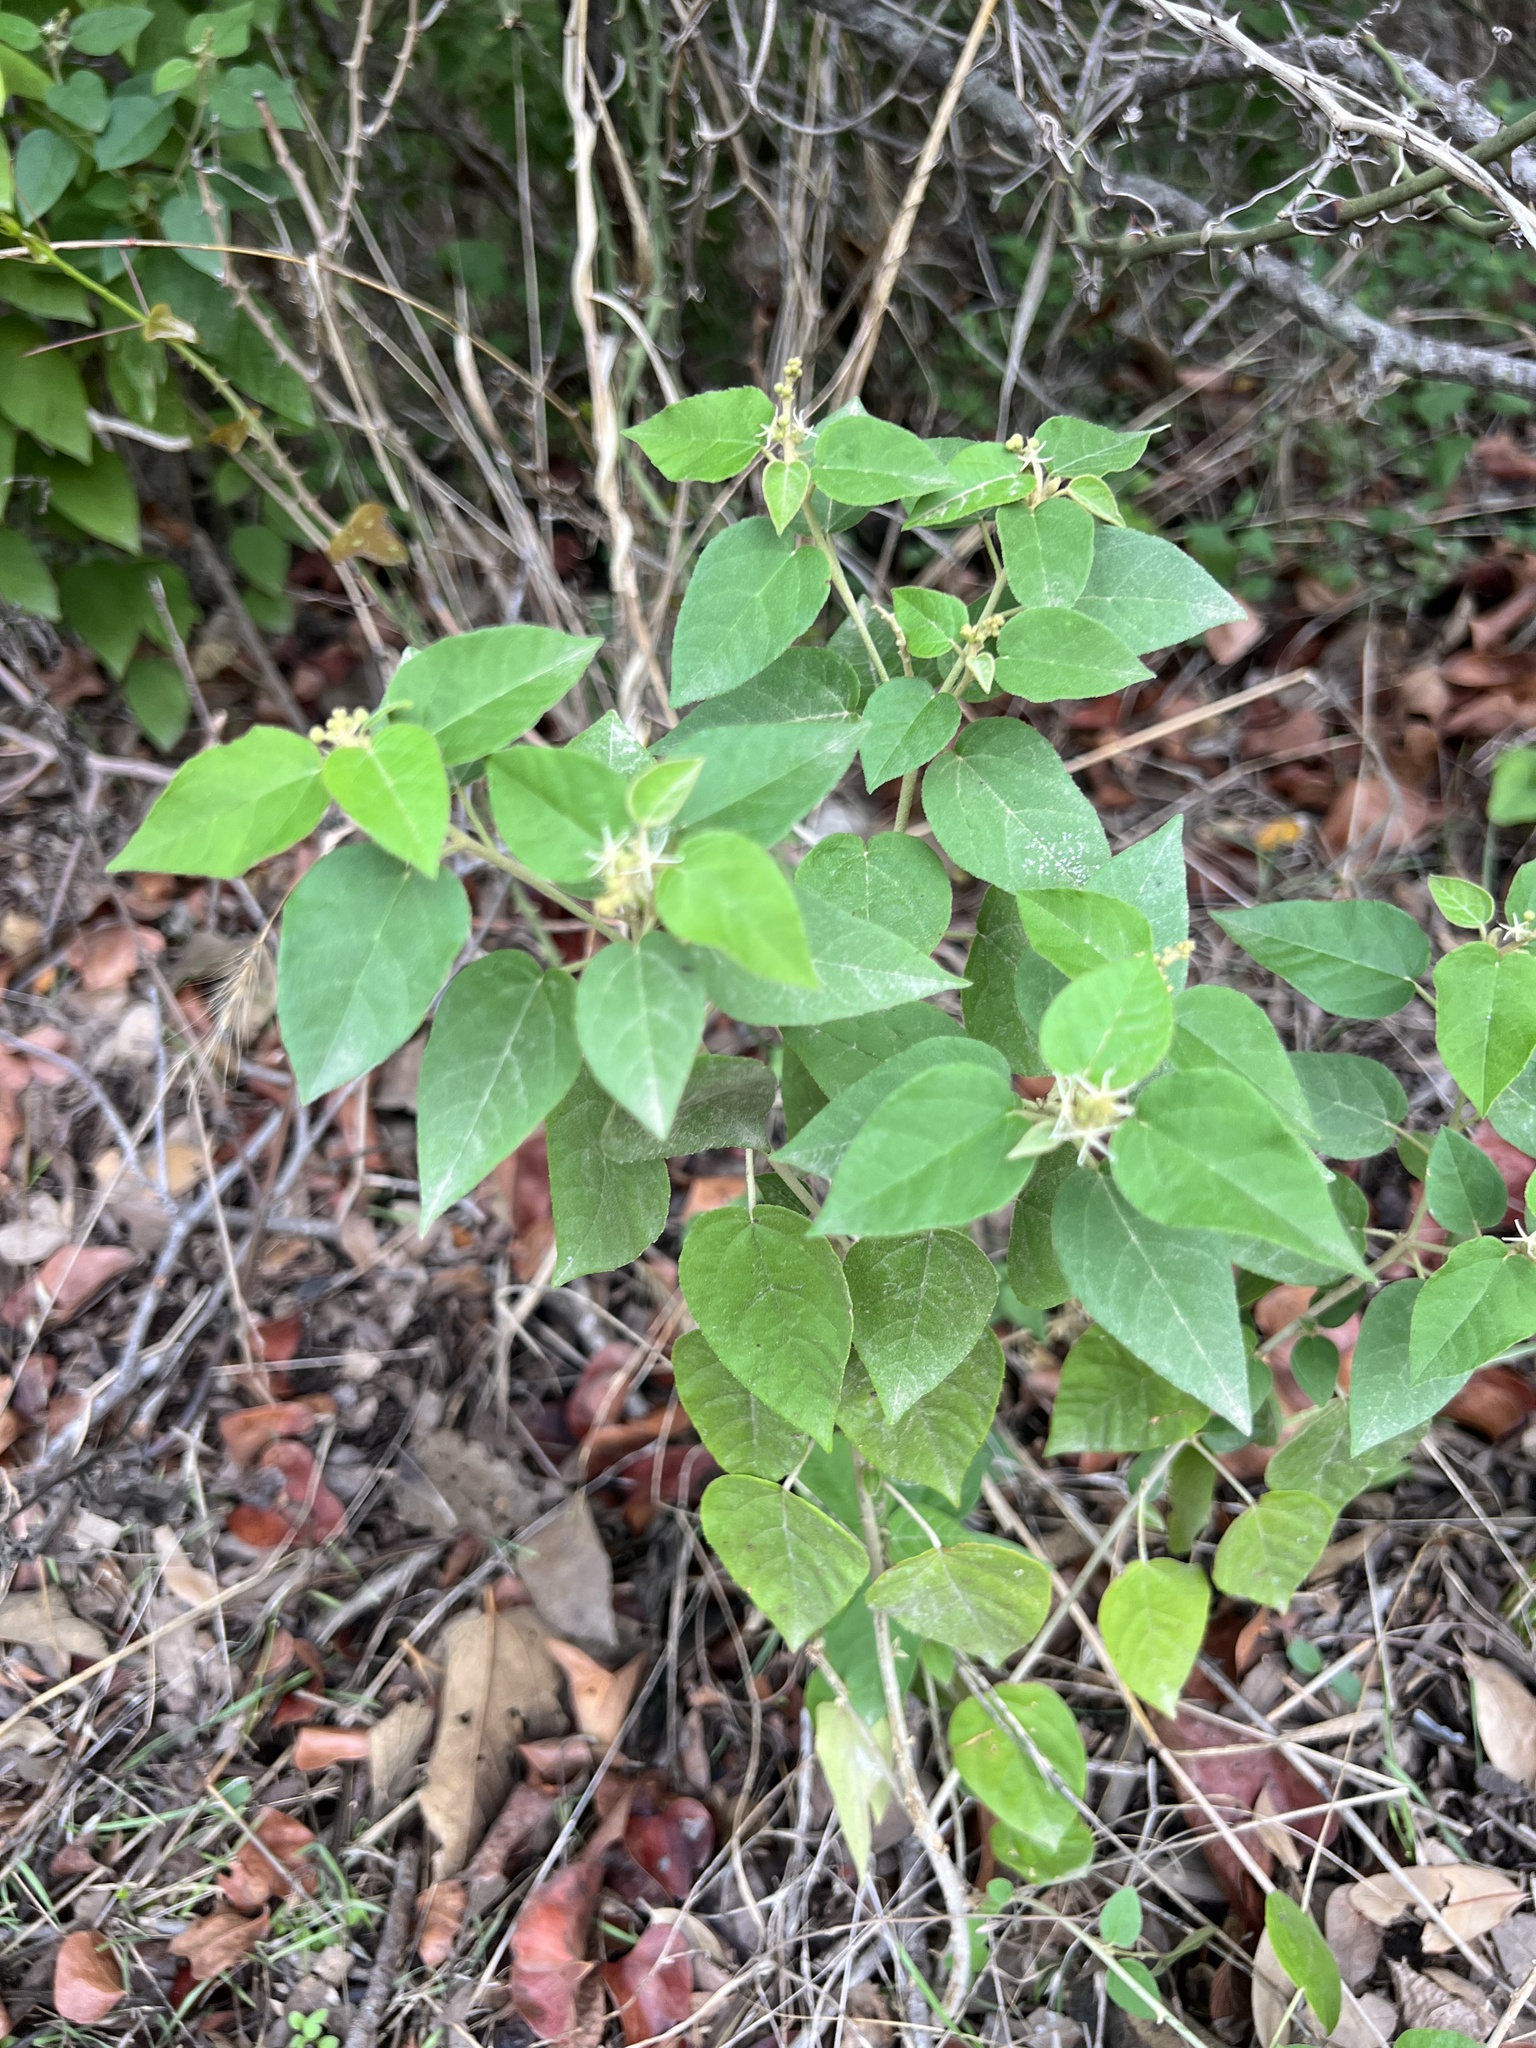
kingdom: Plantae
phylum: Tracheophyta
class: Magnoliopsida
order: Malpighiales
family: Euphorbiaceae
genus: Croton
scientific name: Croton fruticulosus
